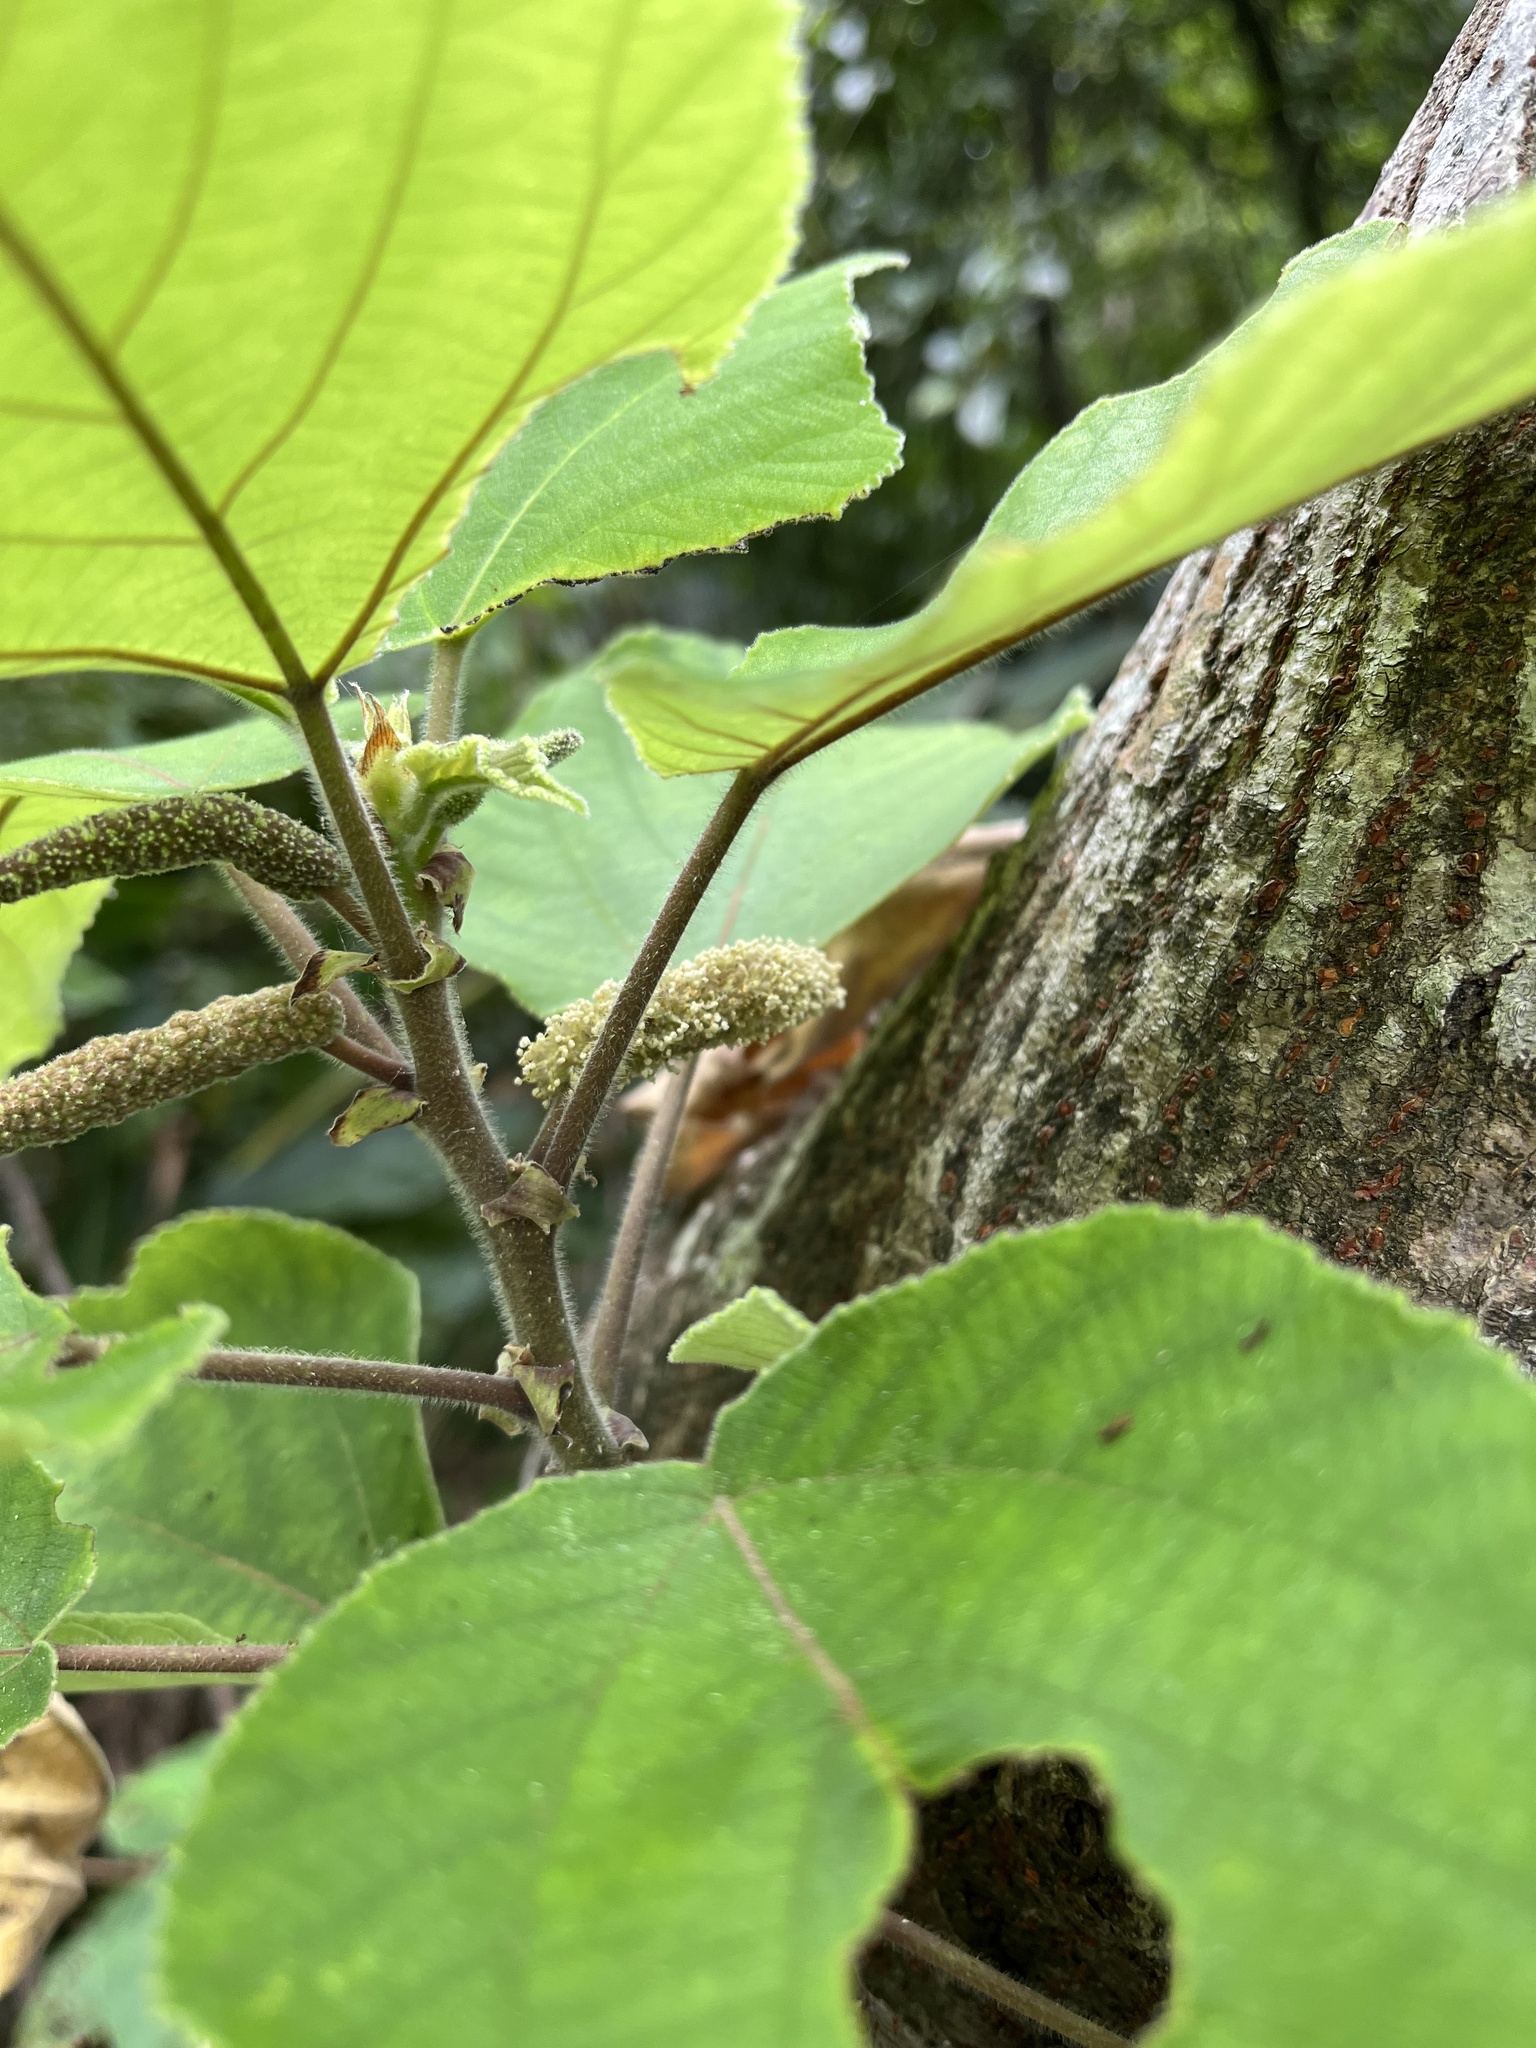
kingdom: Plantae
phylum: Tracheophyta
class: Magnoliopsida
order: Rosales
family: Moraceae
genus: Broussonetia
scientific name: Broussonetia papyrifera
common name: Paper mulberry
